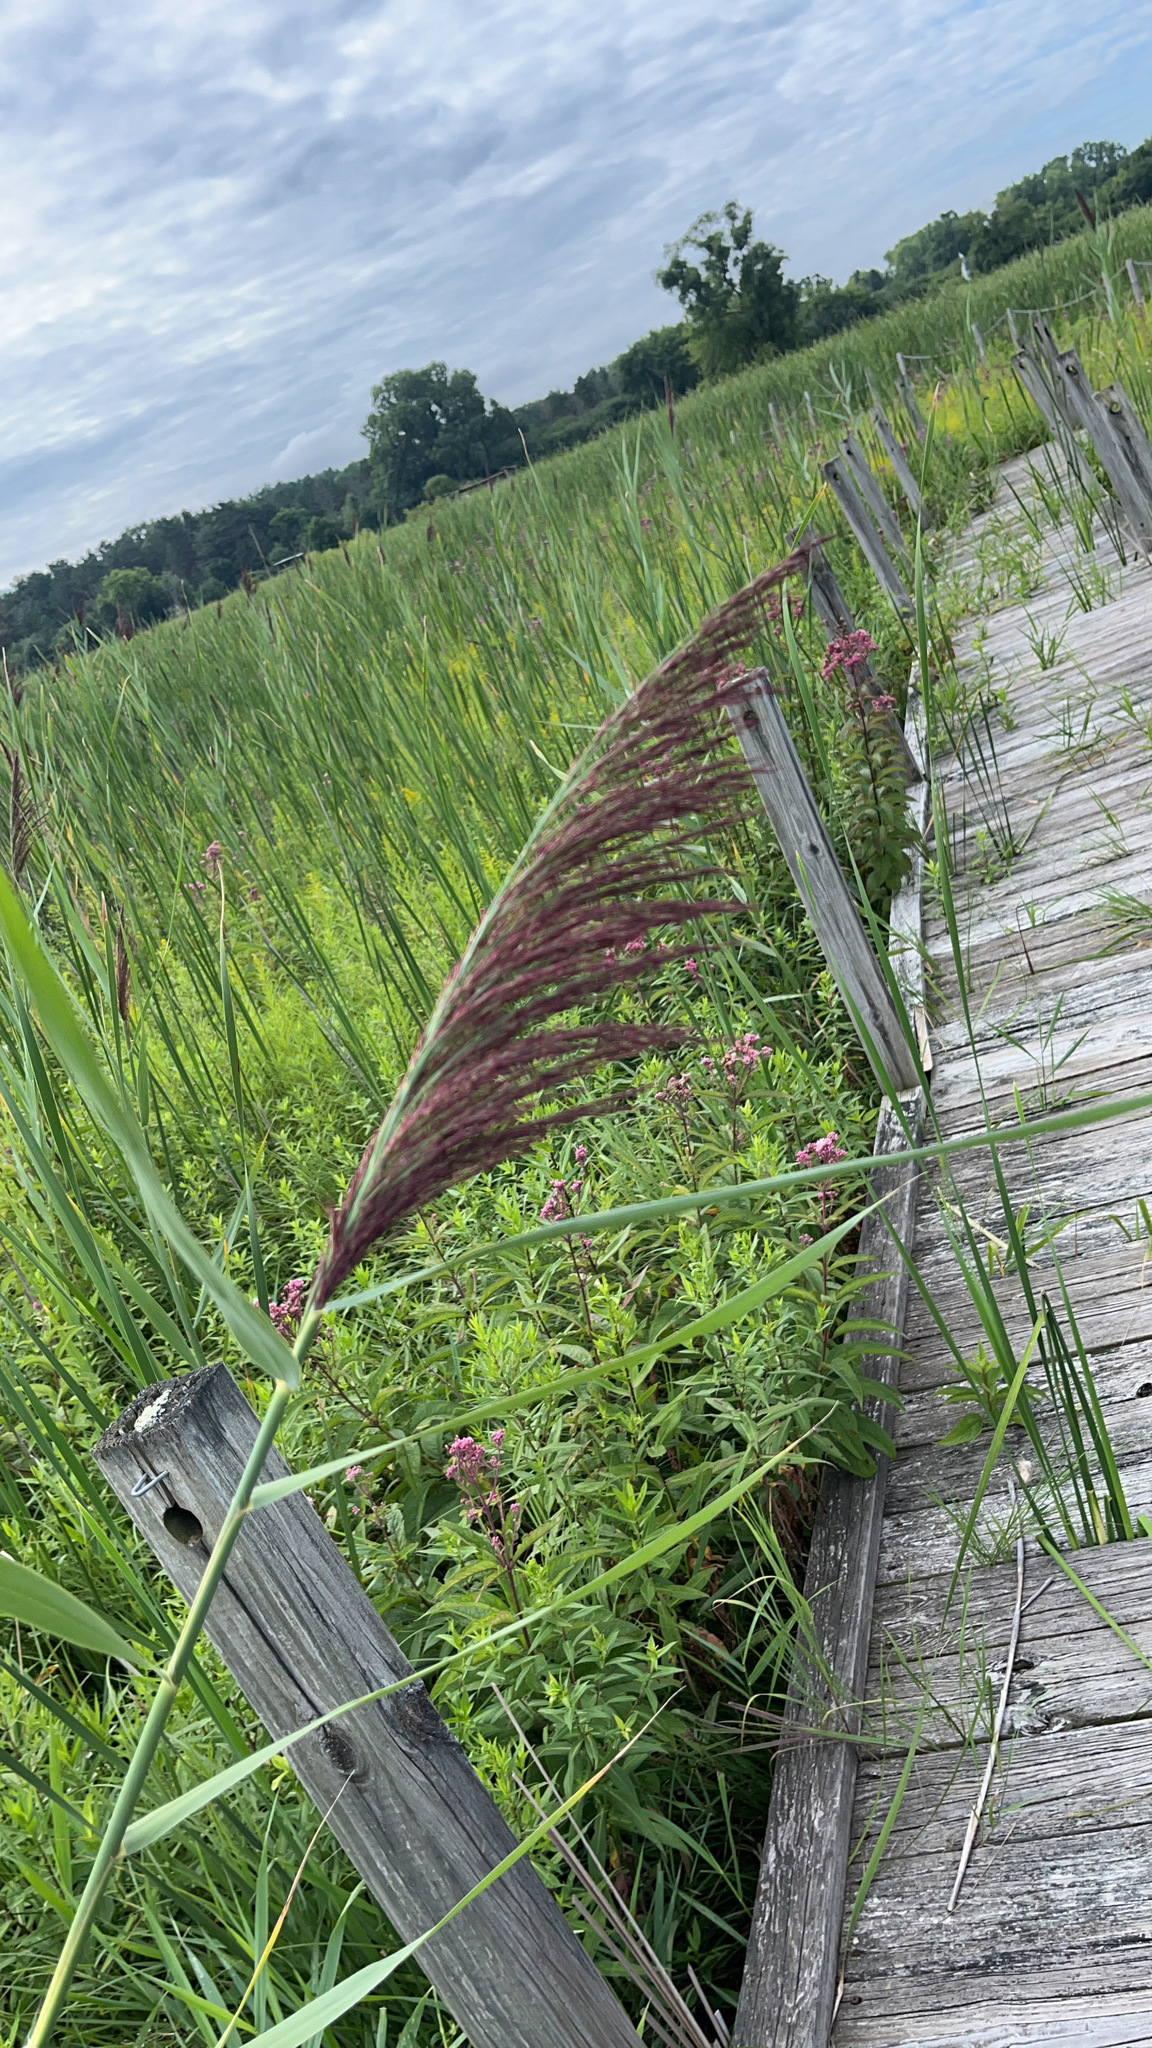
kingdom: Plantae
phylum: Tracheophyta
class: Liliopsida
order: Poales
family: Poaceae
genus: Phragmites
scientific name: Phragmites australis
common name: Common reed
